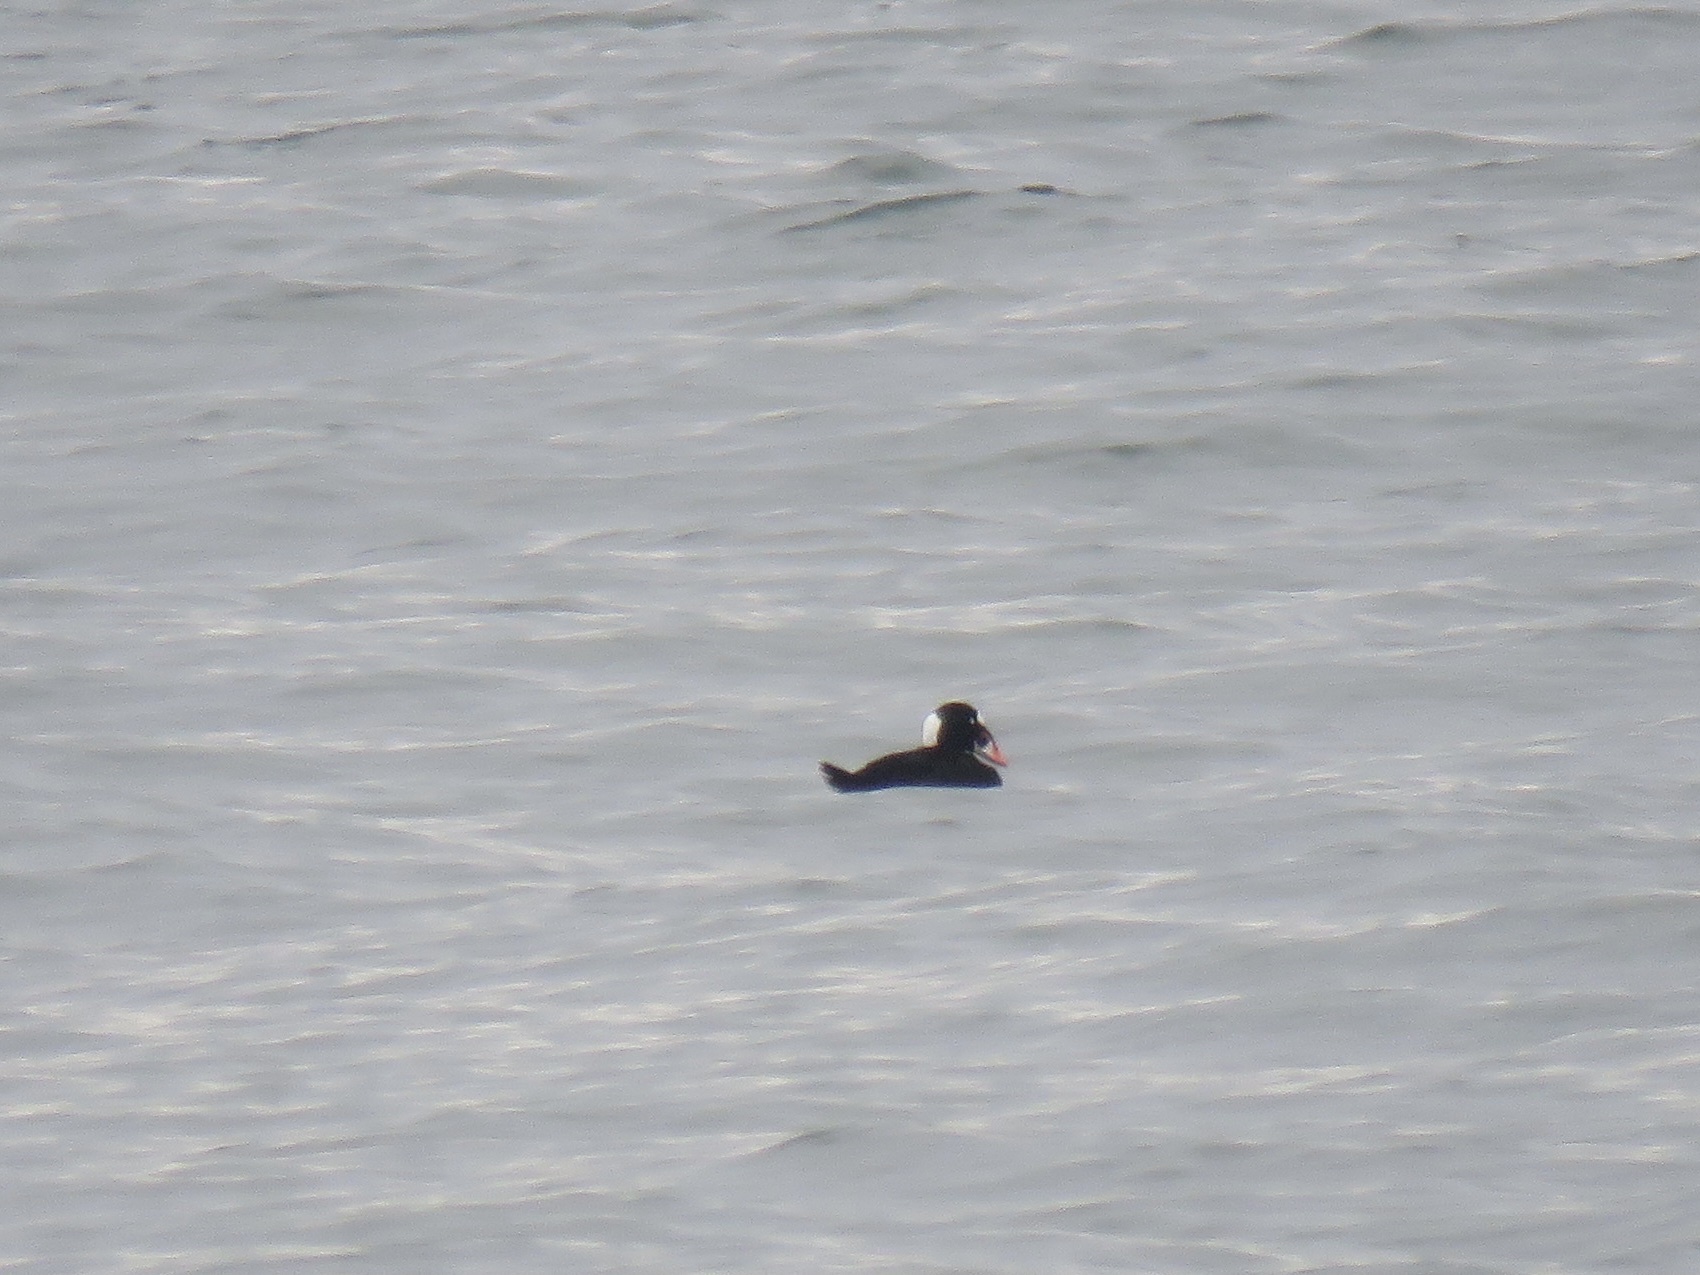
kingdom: Animalia
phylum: Chordata
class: Aves
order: Anseriformes
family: Anatidae
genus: Melanitta
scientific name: Melanitta perspicillata
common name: Surf scoter
